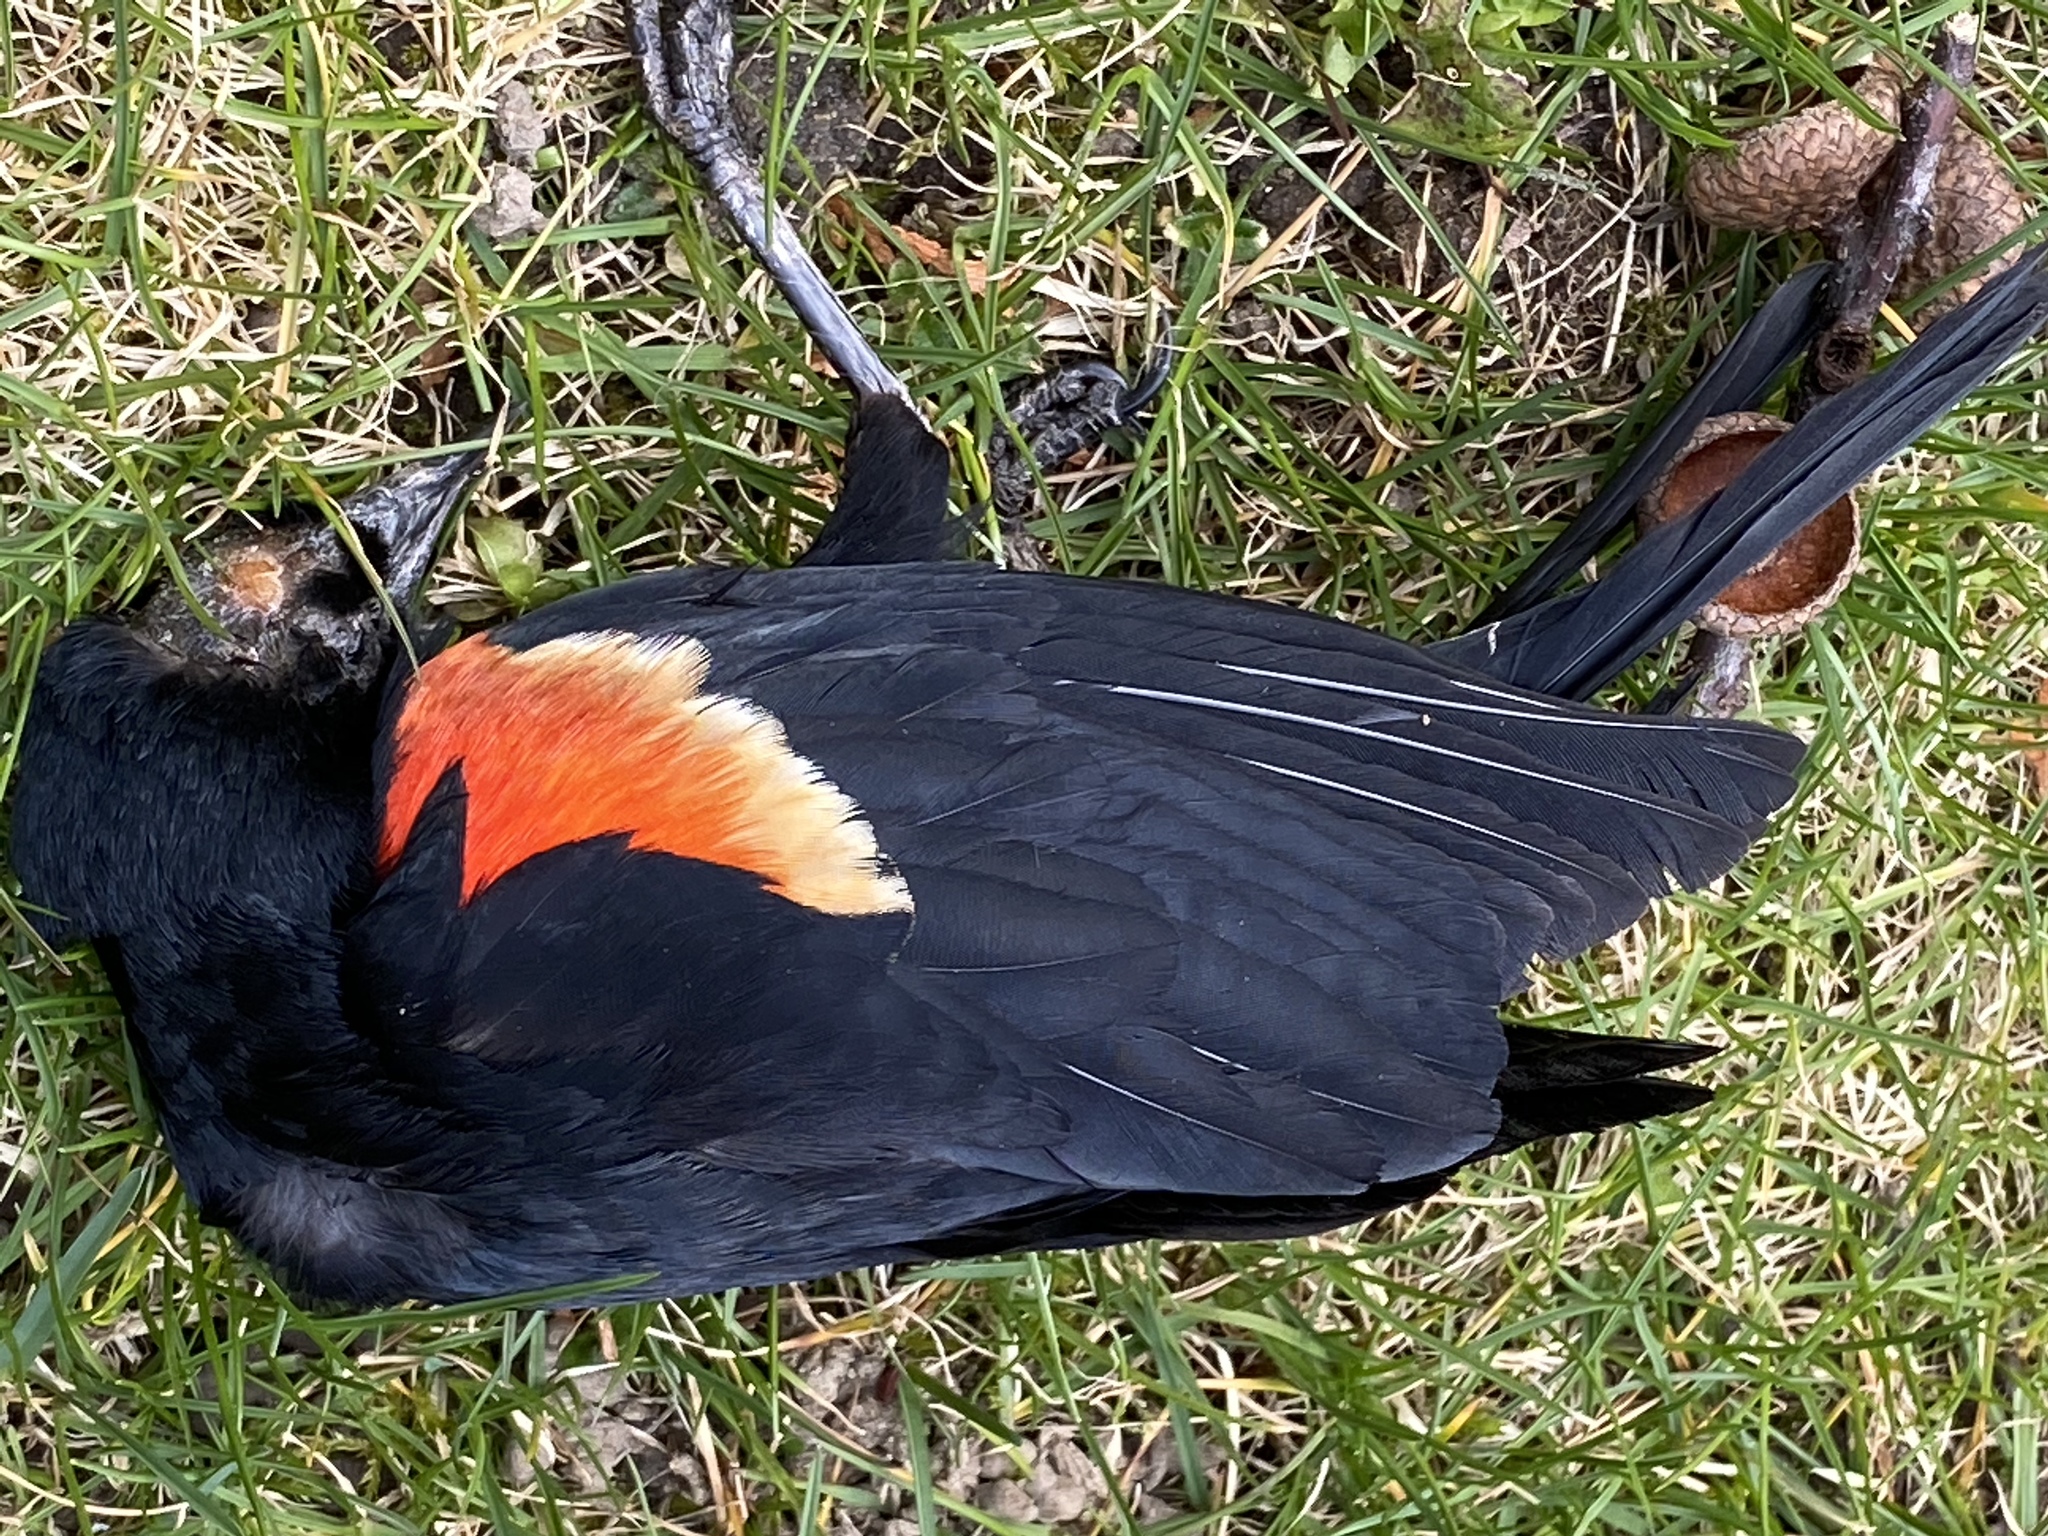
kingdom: Animalia
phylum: Chordata
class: Aves
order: Passeriformes
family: Icteridae
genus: Agelaius
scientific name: Agelaius phoeniceus
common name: Red-winged blackbird
